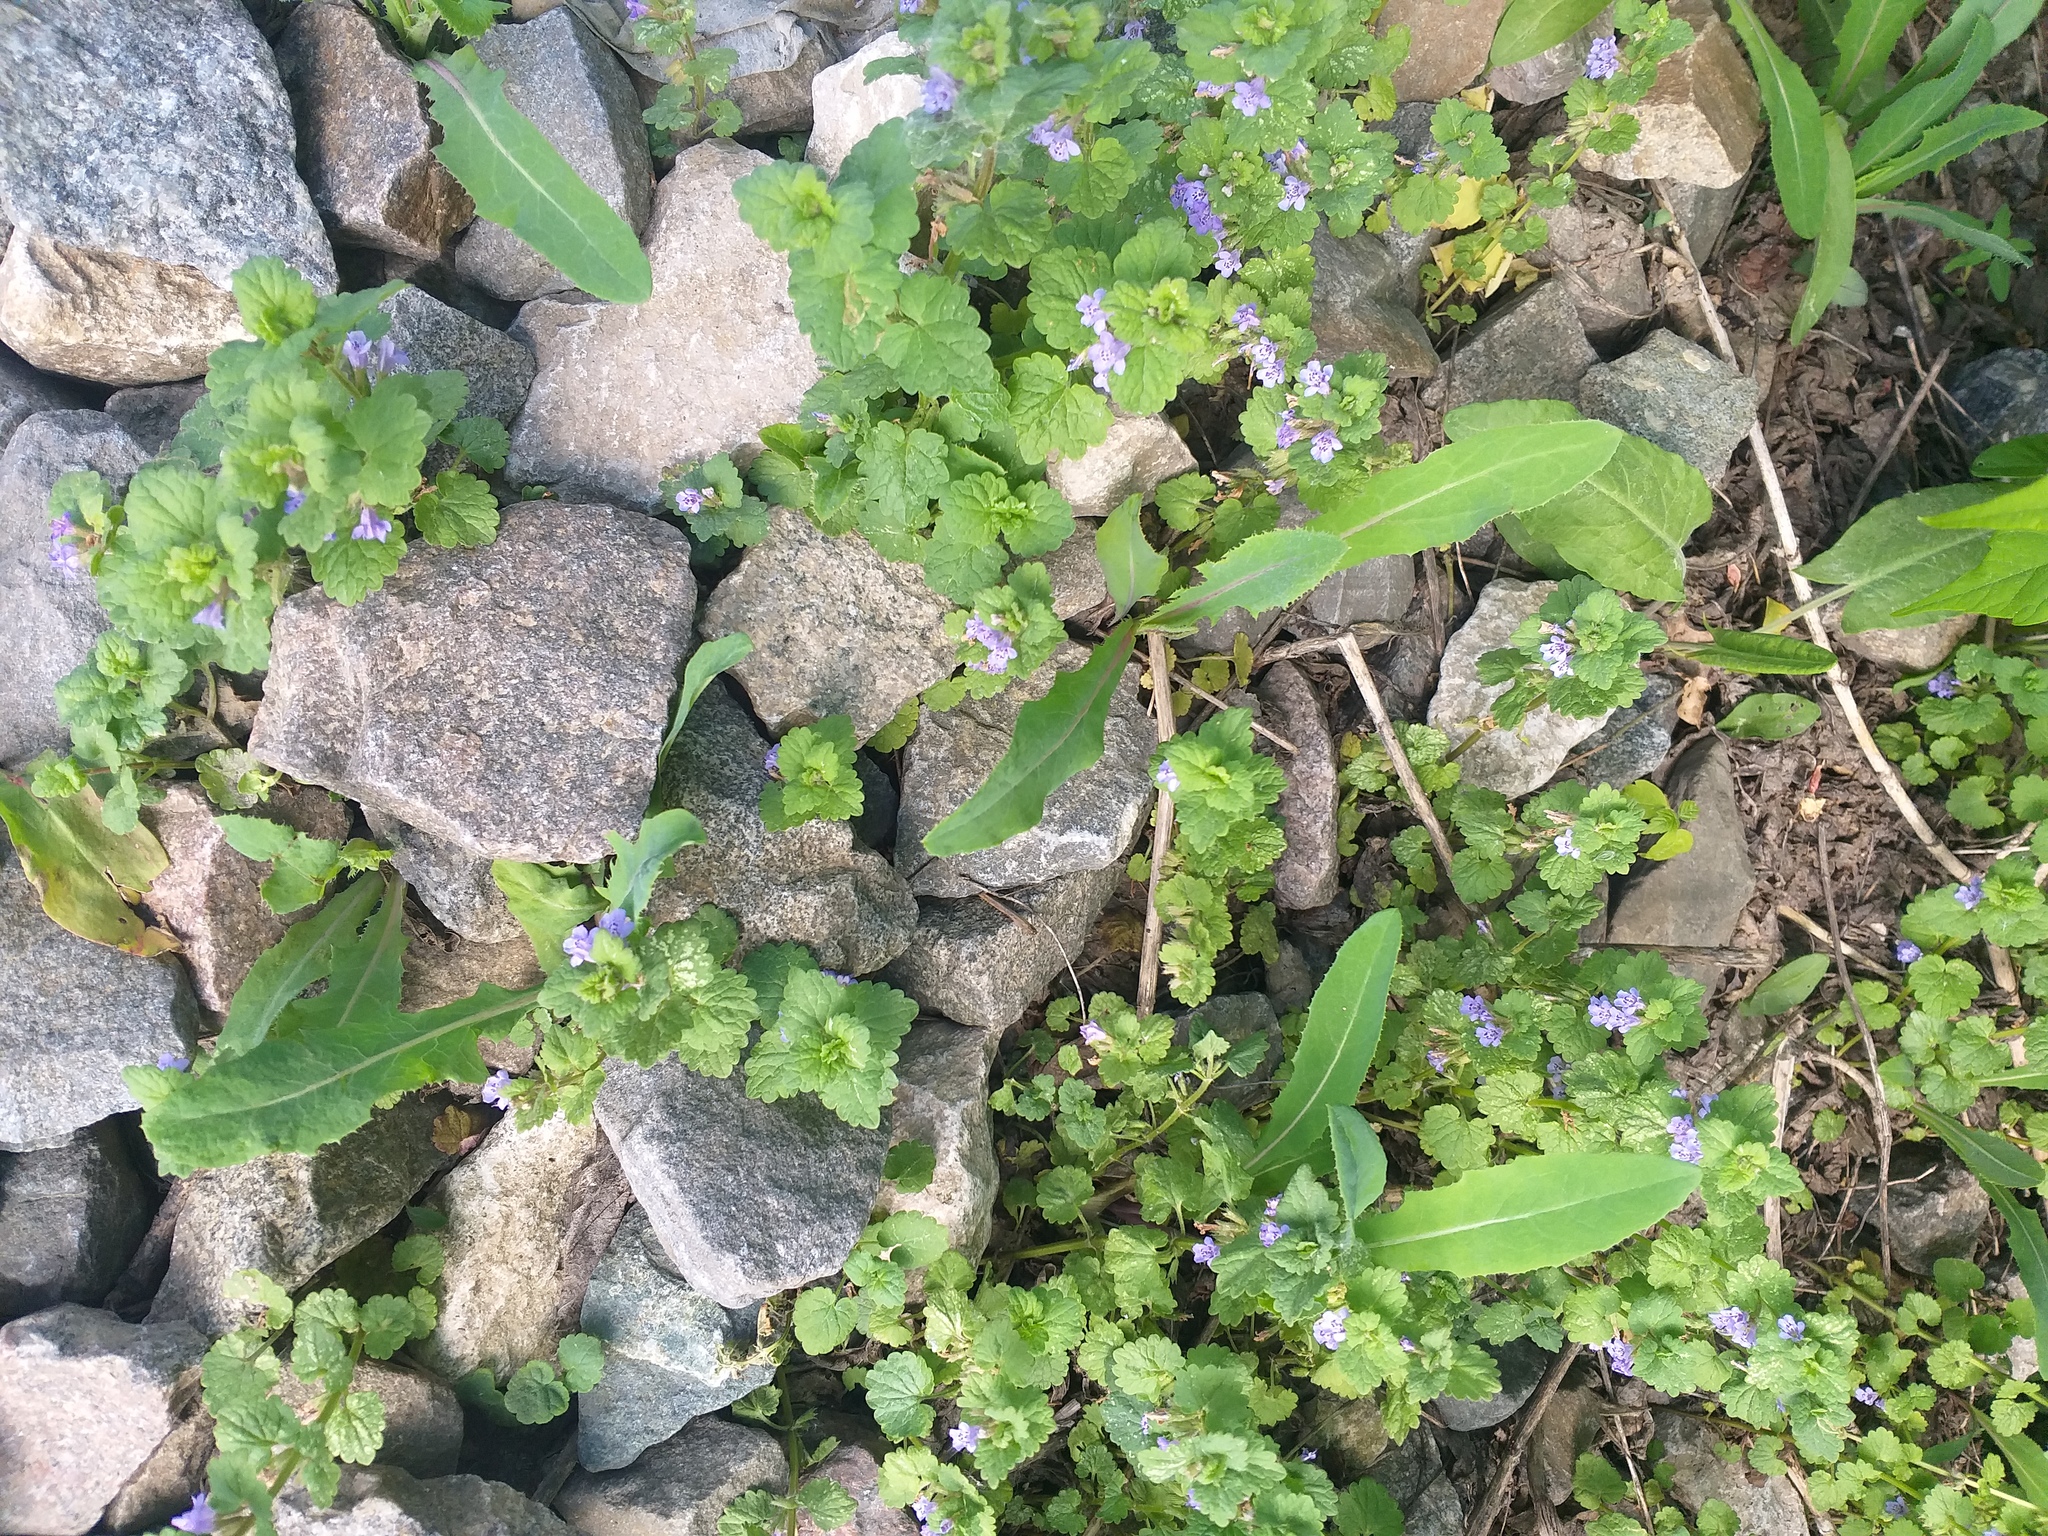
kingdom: Plantae
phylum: Tracheophyta
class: Magnoliopsida
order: Lamiales
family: Lamiaceae
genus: Glechoma
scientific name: Glechoma hederacea
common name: Ground ivy
